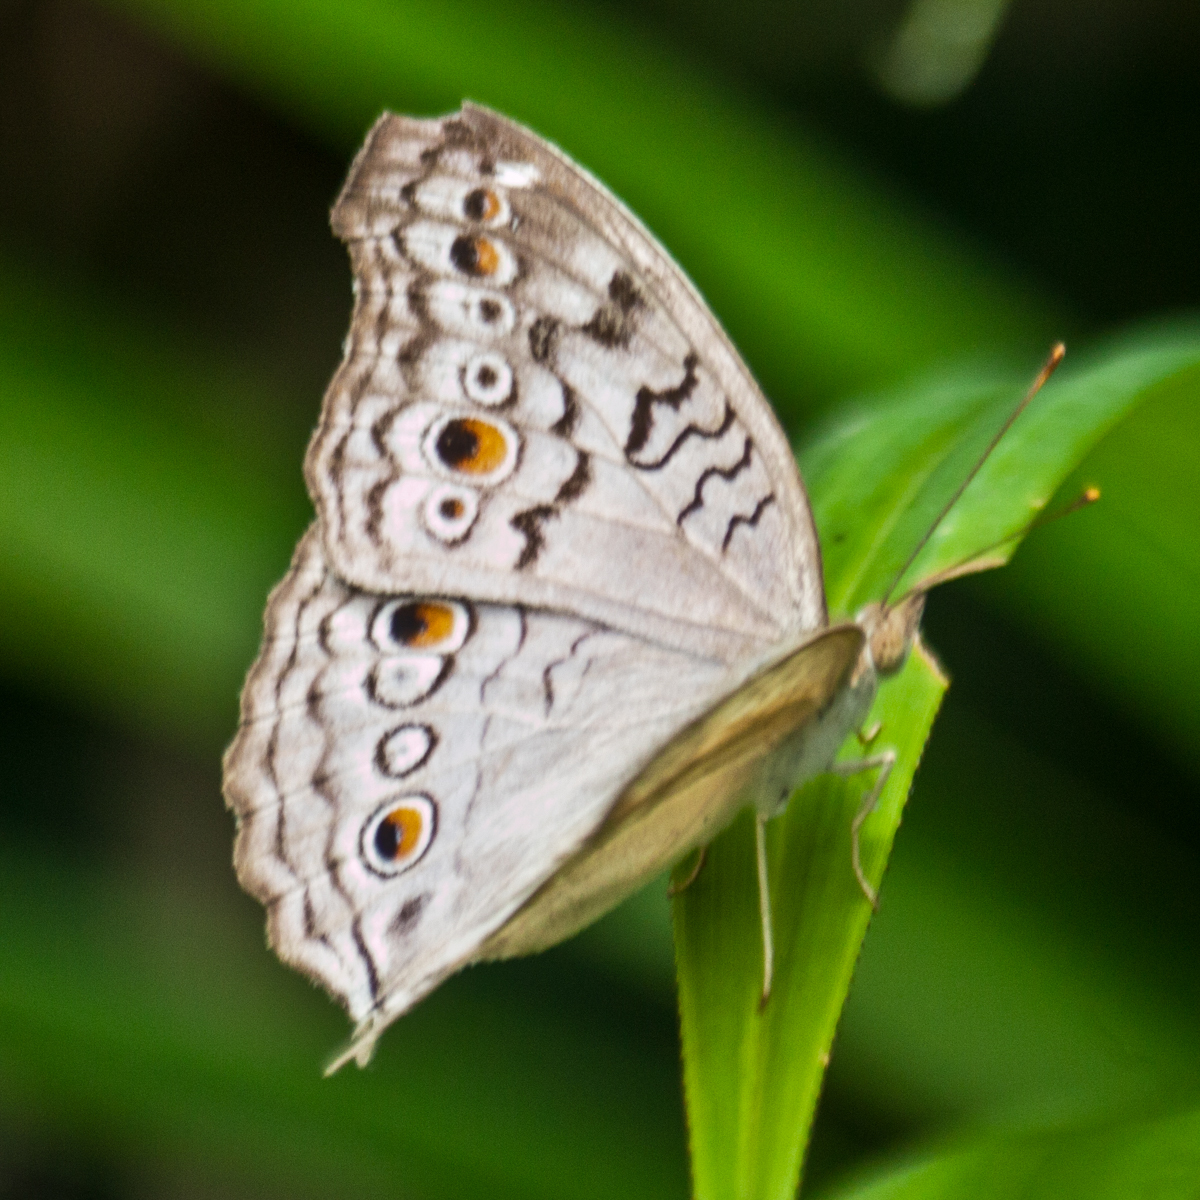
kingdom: Animalia
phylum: Arthropoda
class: Insecta
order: Lepidoptera
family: Nymphalidae
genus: Junonia
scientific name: Junonia atlites
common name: Grey pansy
